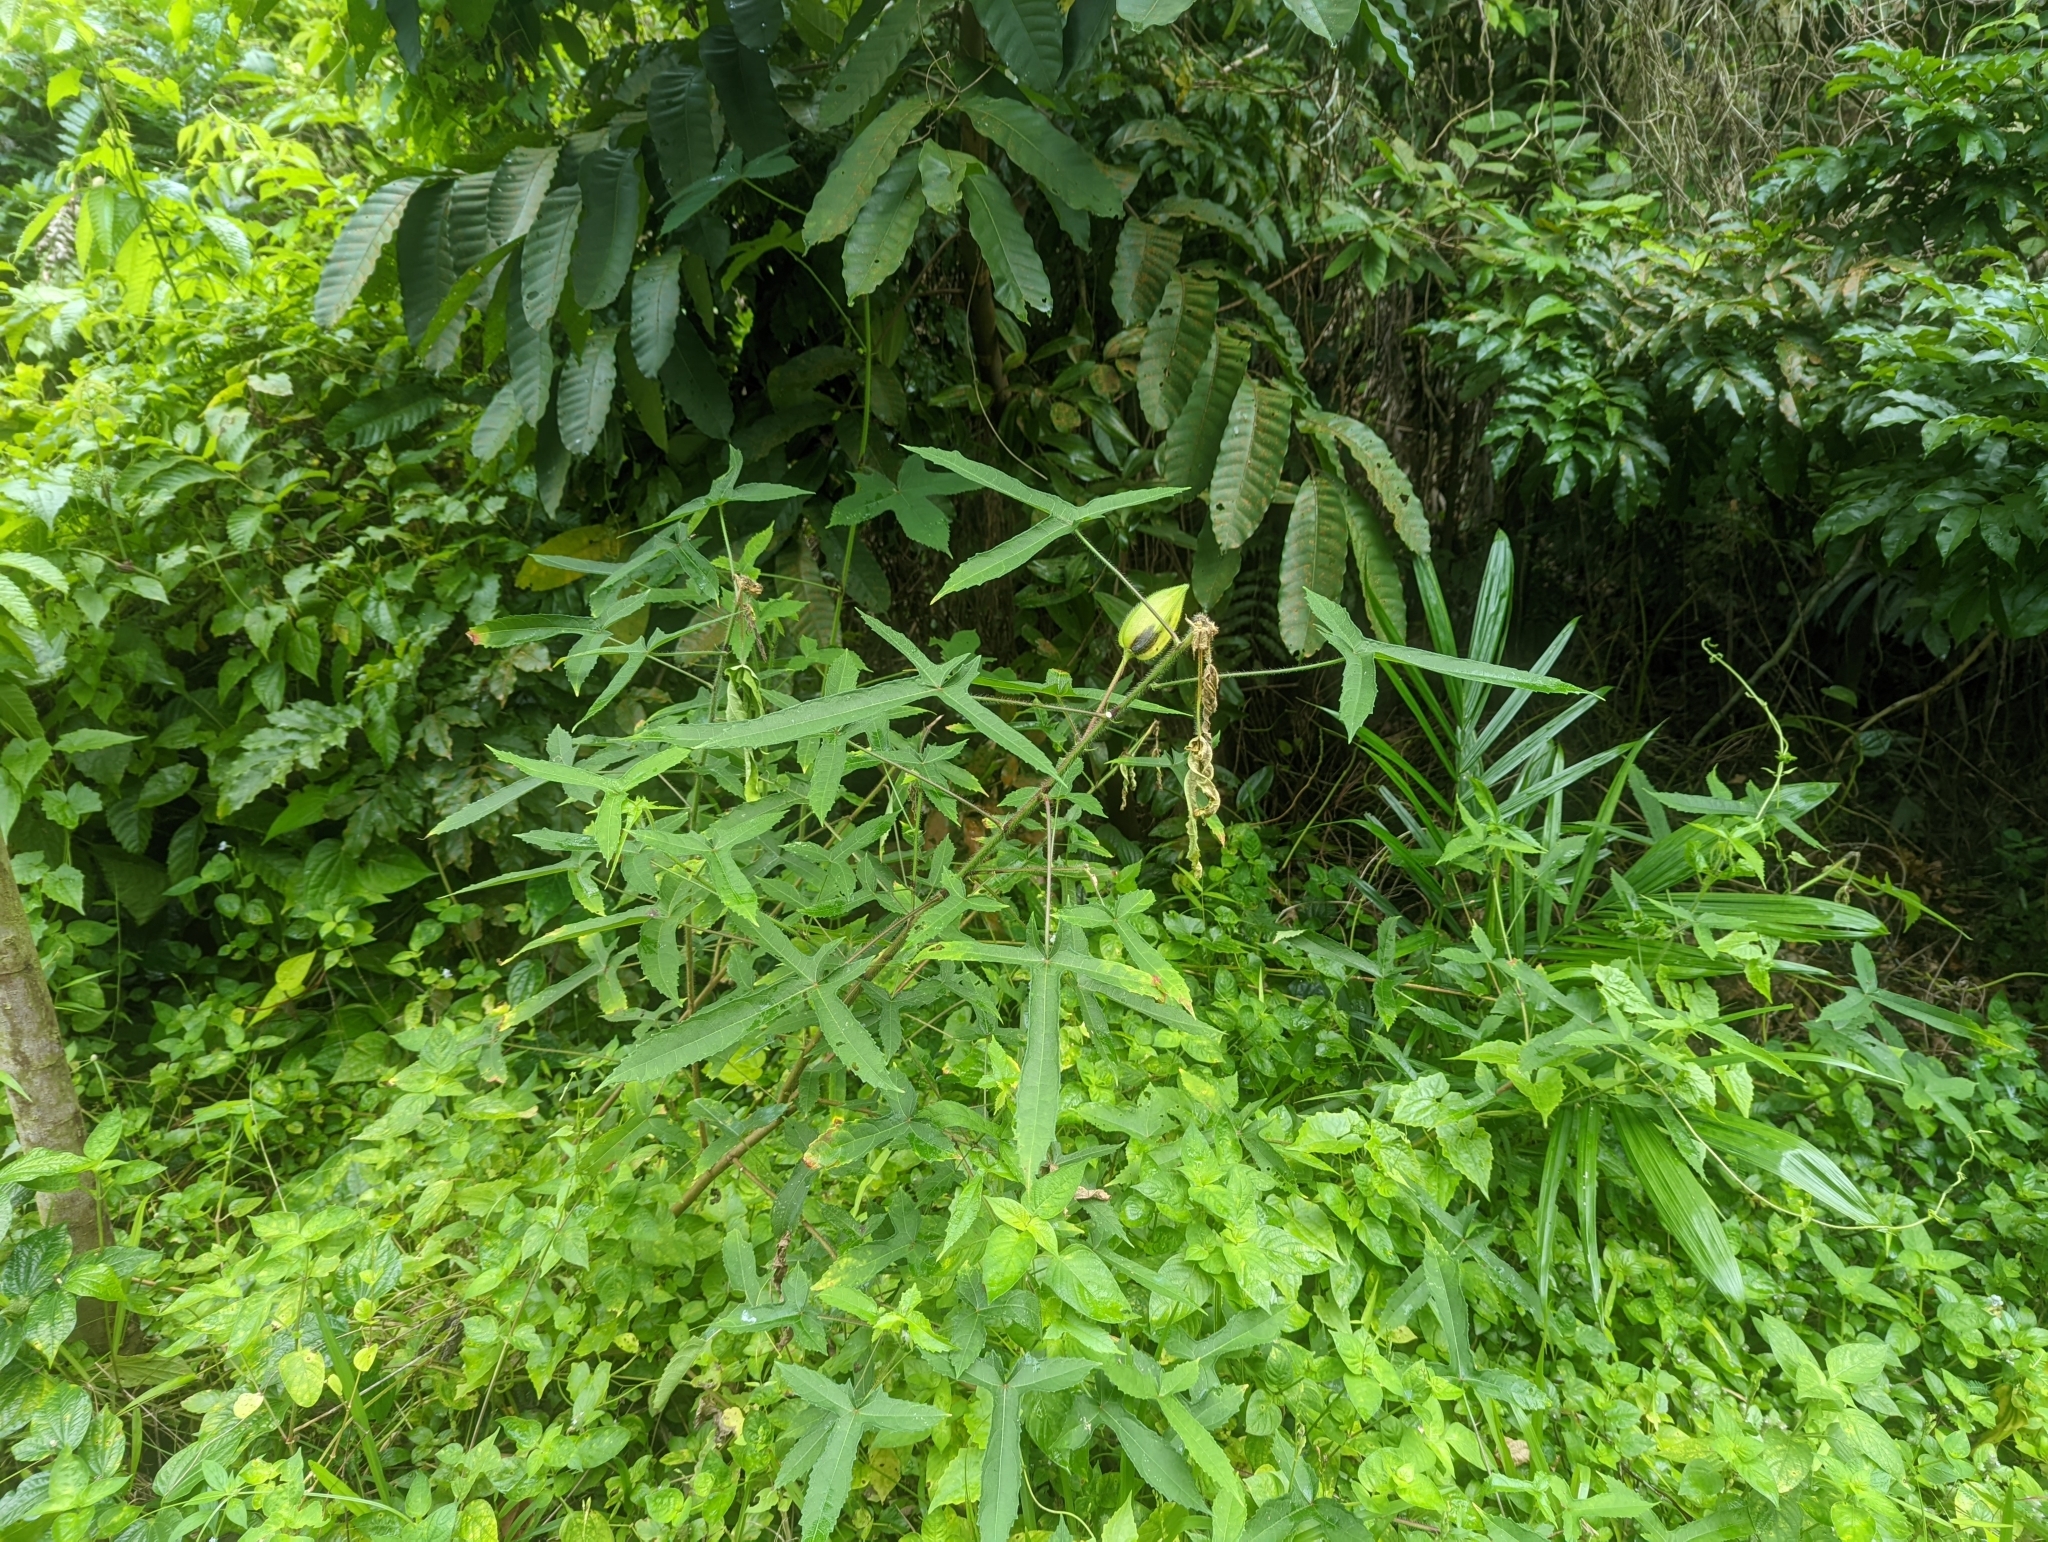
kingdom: Plantae
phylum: Tracheophyta
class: Magnoliopsida
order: Malvales
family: Malvaceae
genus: Abelmoschus
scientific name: Abelmoschus moschatus
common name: Musk okra
